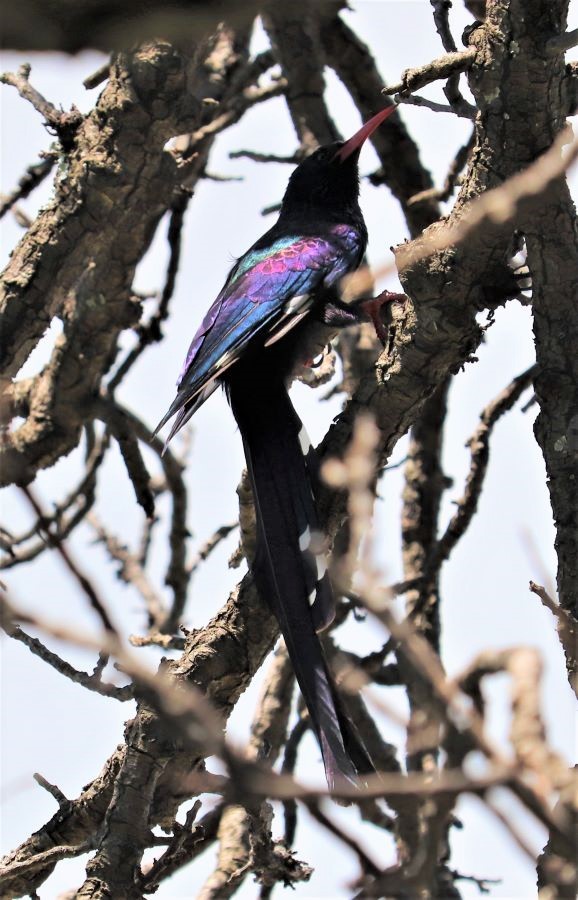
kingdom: Animalia
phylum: Chordata
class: Aves
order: Bucerotiformes
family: Phoeniculidae
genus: Phoeniculus
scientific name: Phoeniculus purpureus
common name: Green woodhoopoe
